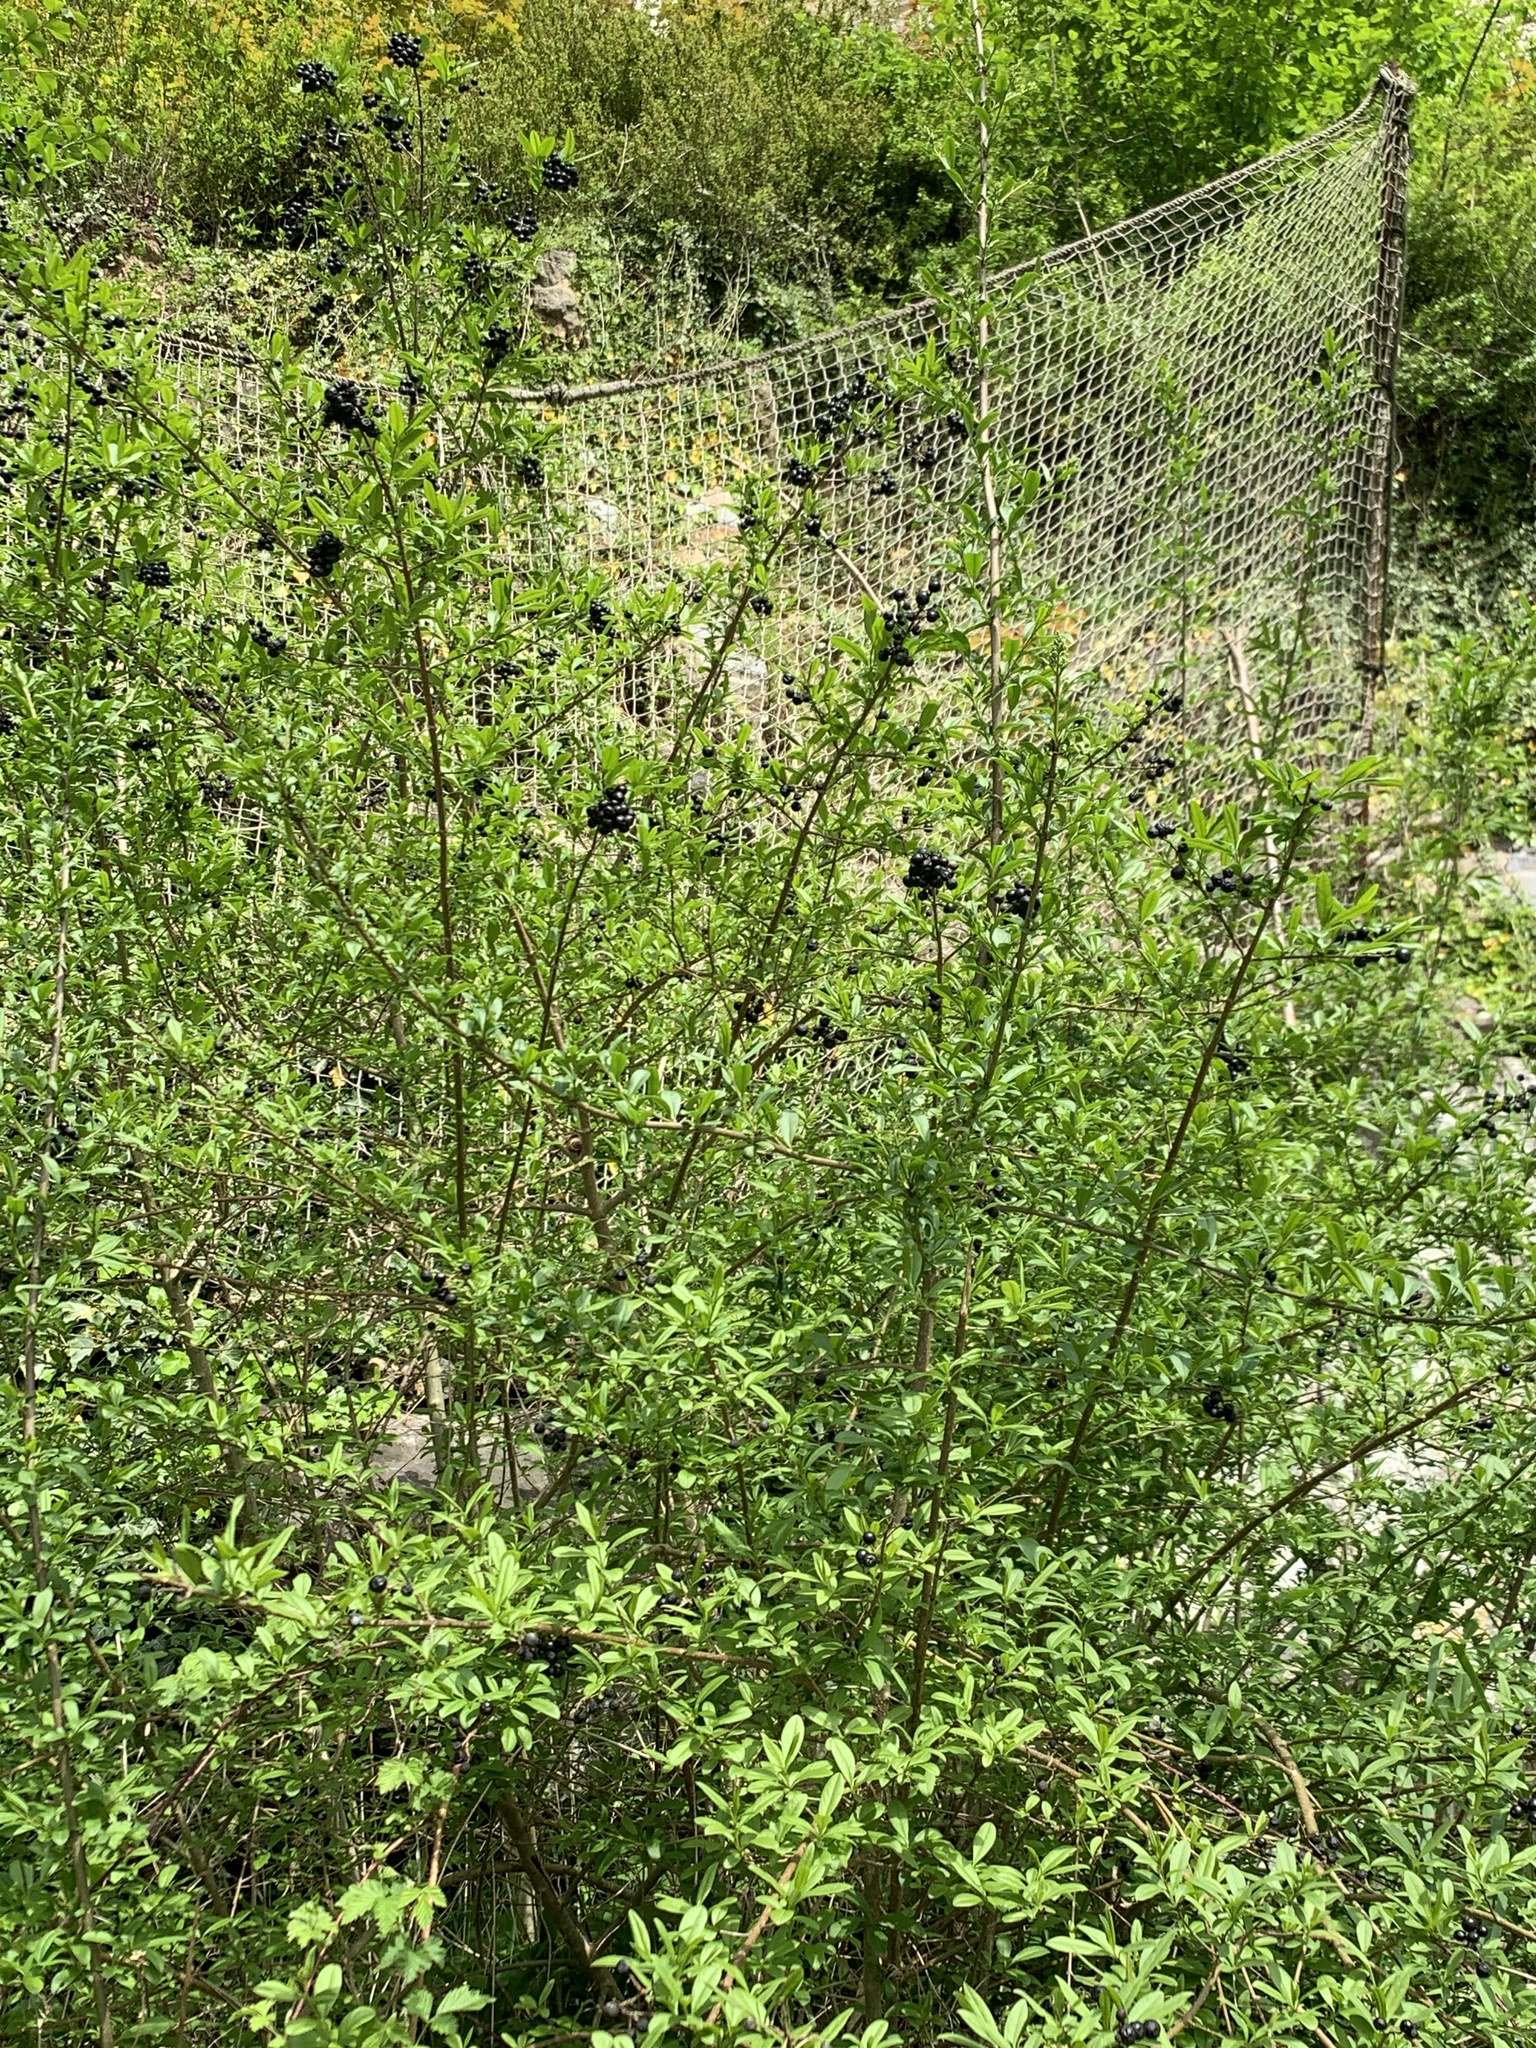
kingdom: Plantae
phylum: Tracheophyta
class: Magnoliopsida
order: Lamiales
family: Oleaceae
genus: Ligustrum
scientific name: Ligustrum vulgare
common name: Wild privet
